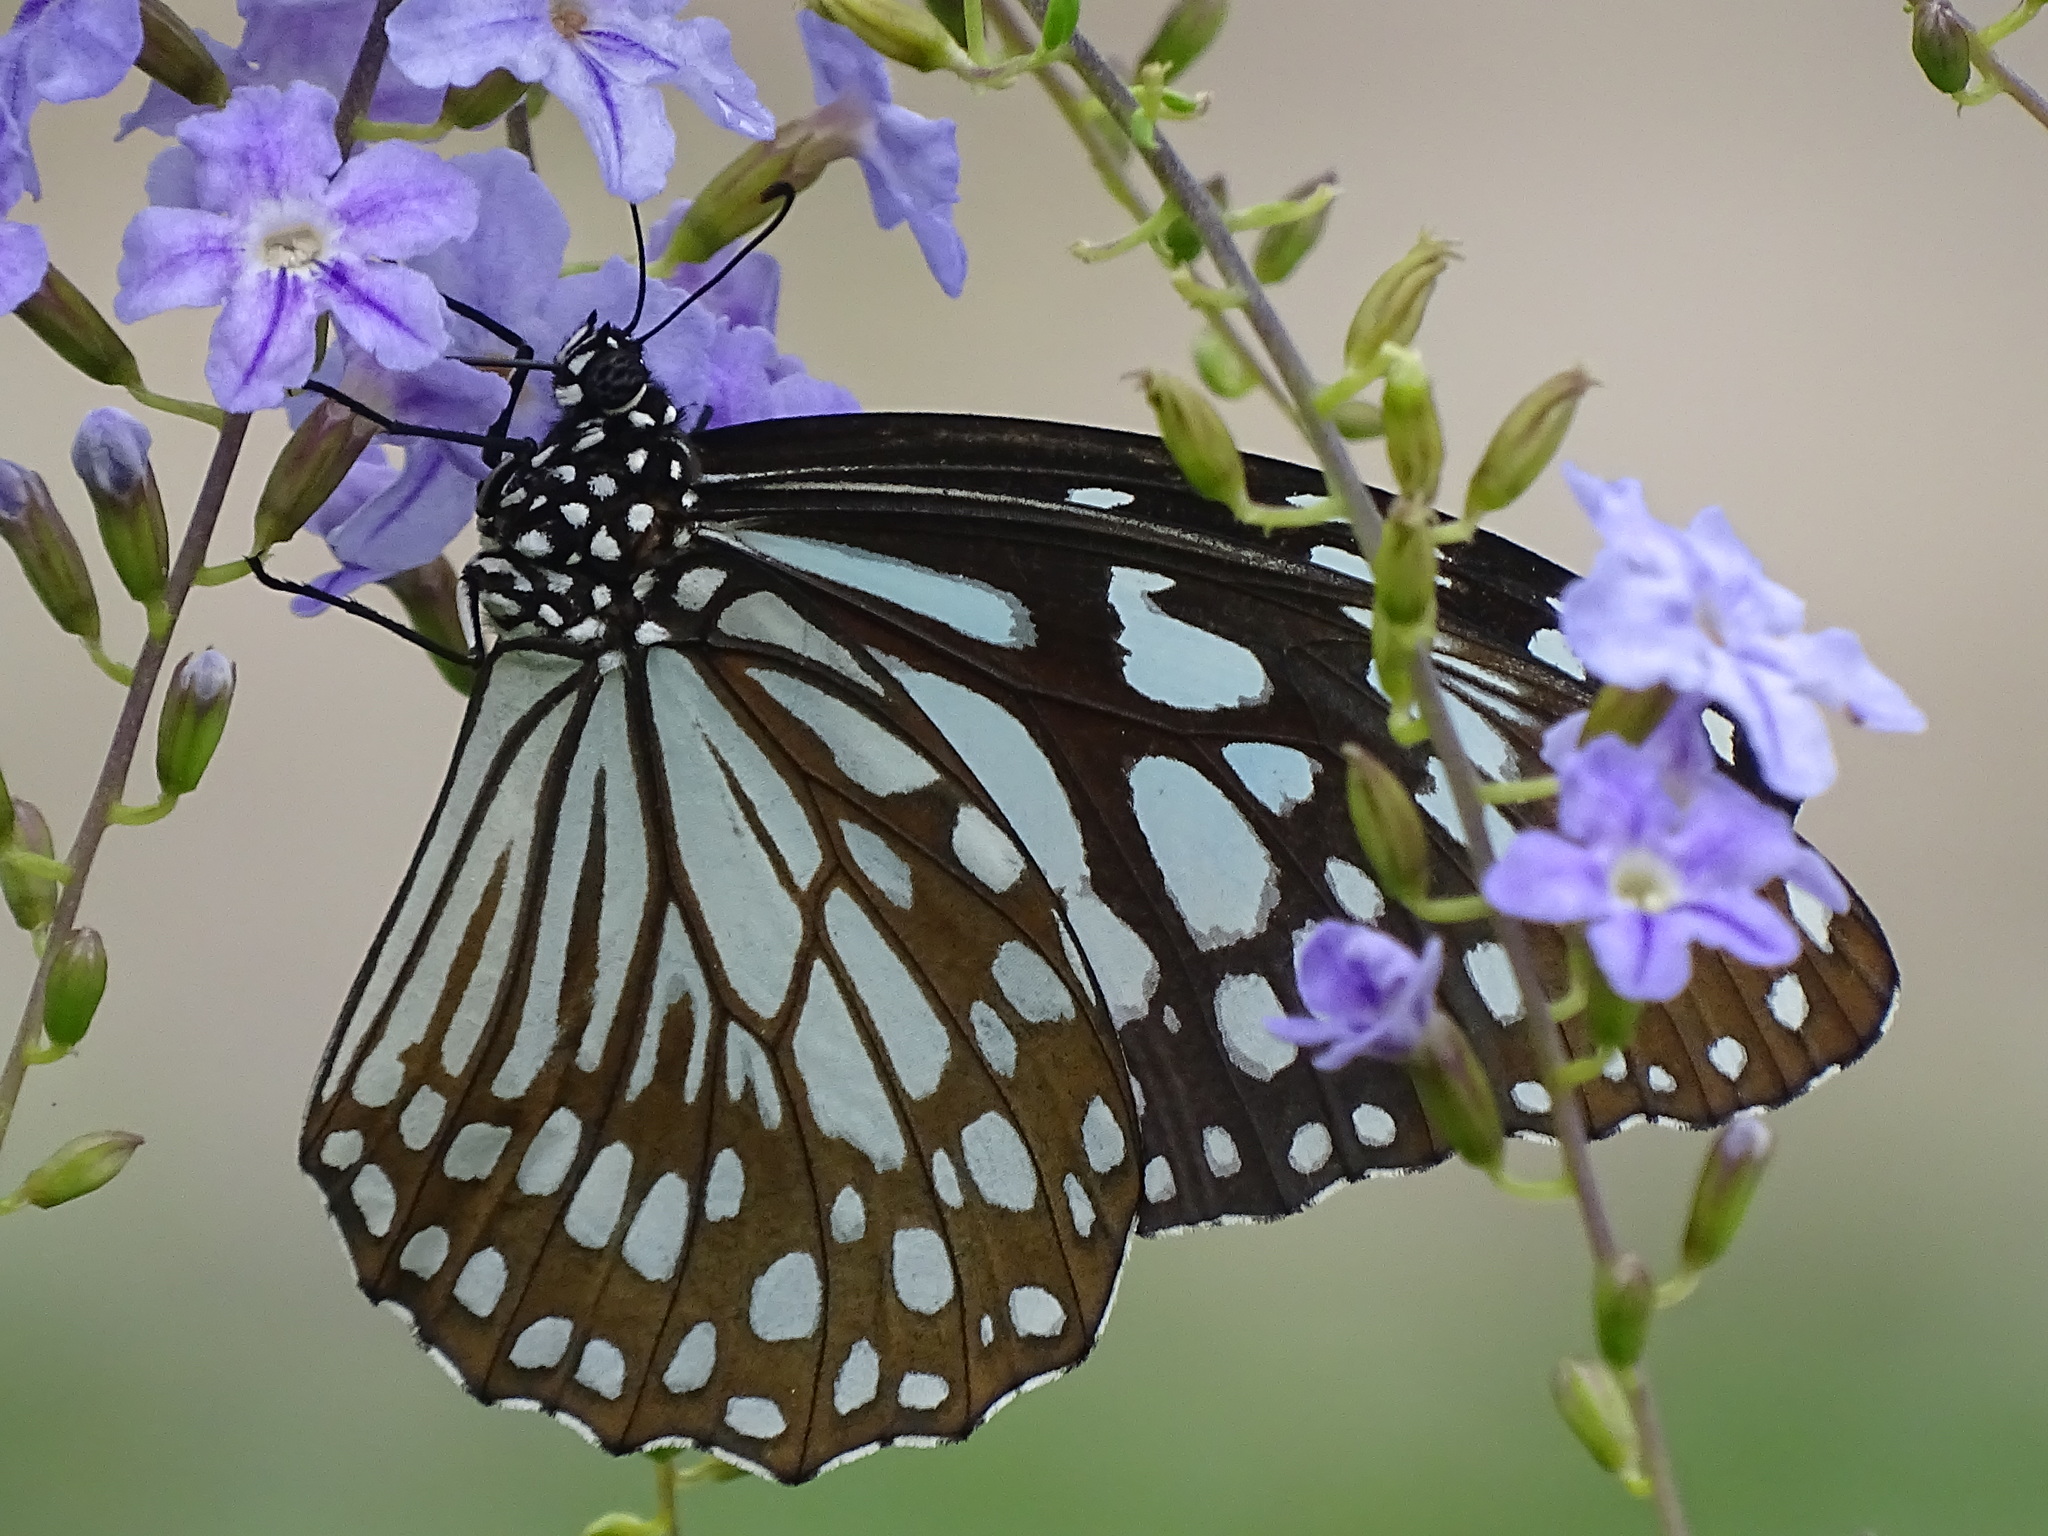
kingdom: Animalia
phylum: Arthropoda
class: Insecta
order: Lepidoptera
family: Nymphalidae
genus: Tirumala
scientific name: Tirumala limniace
